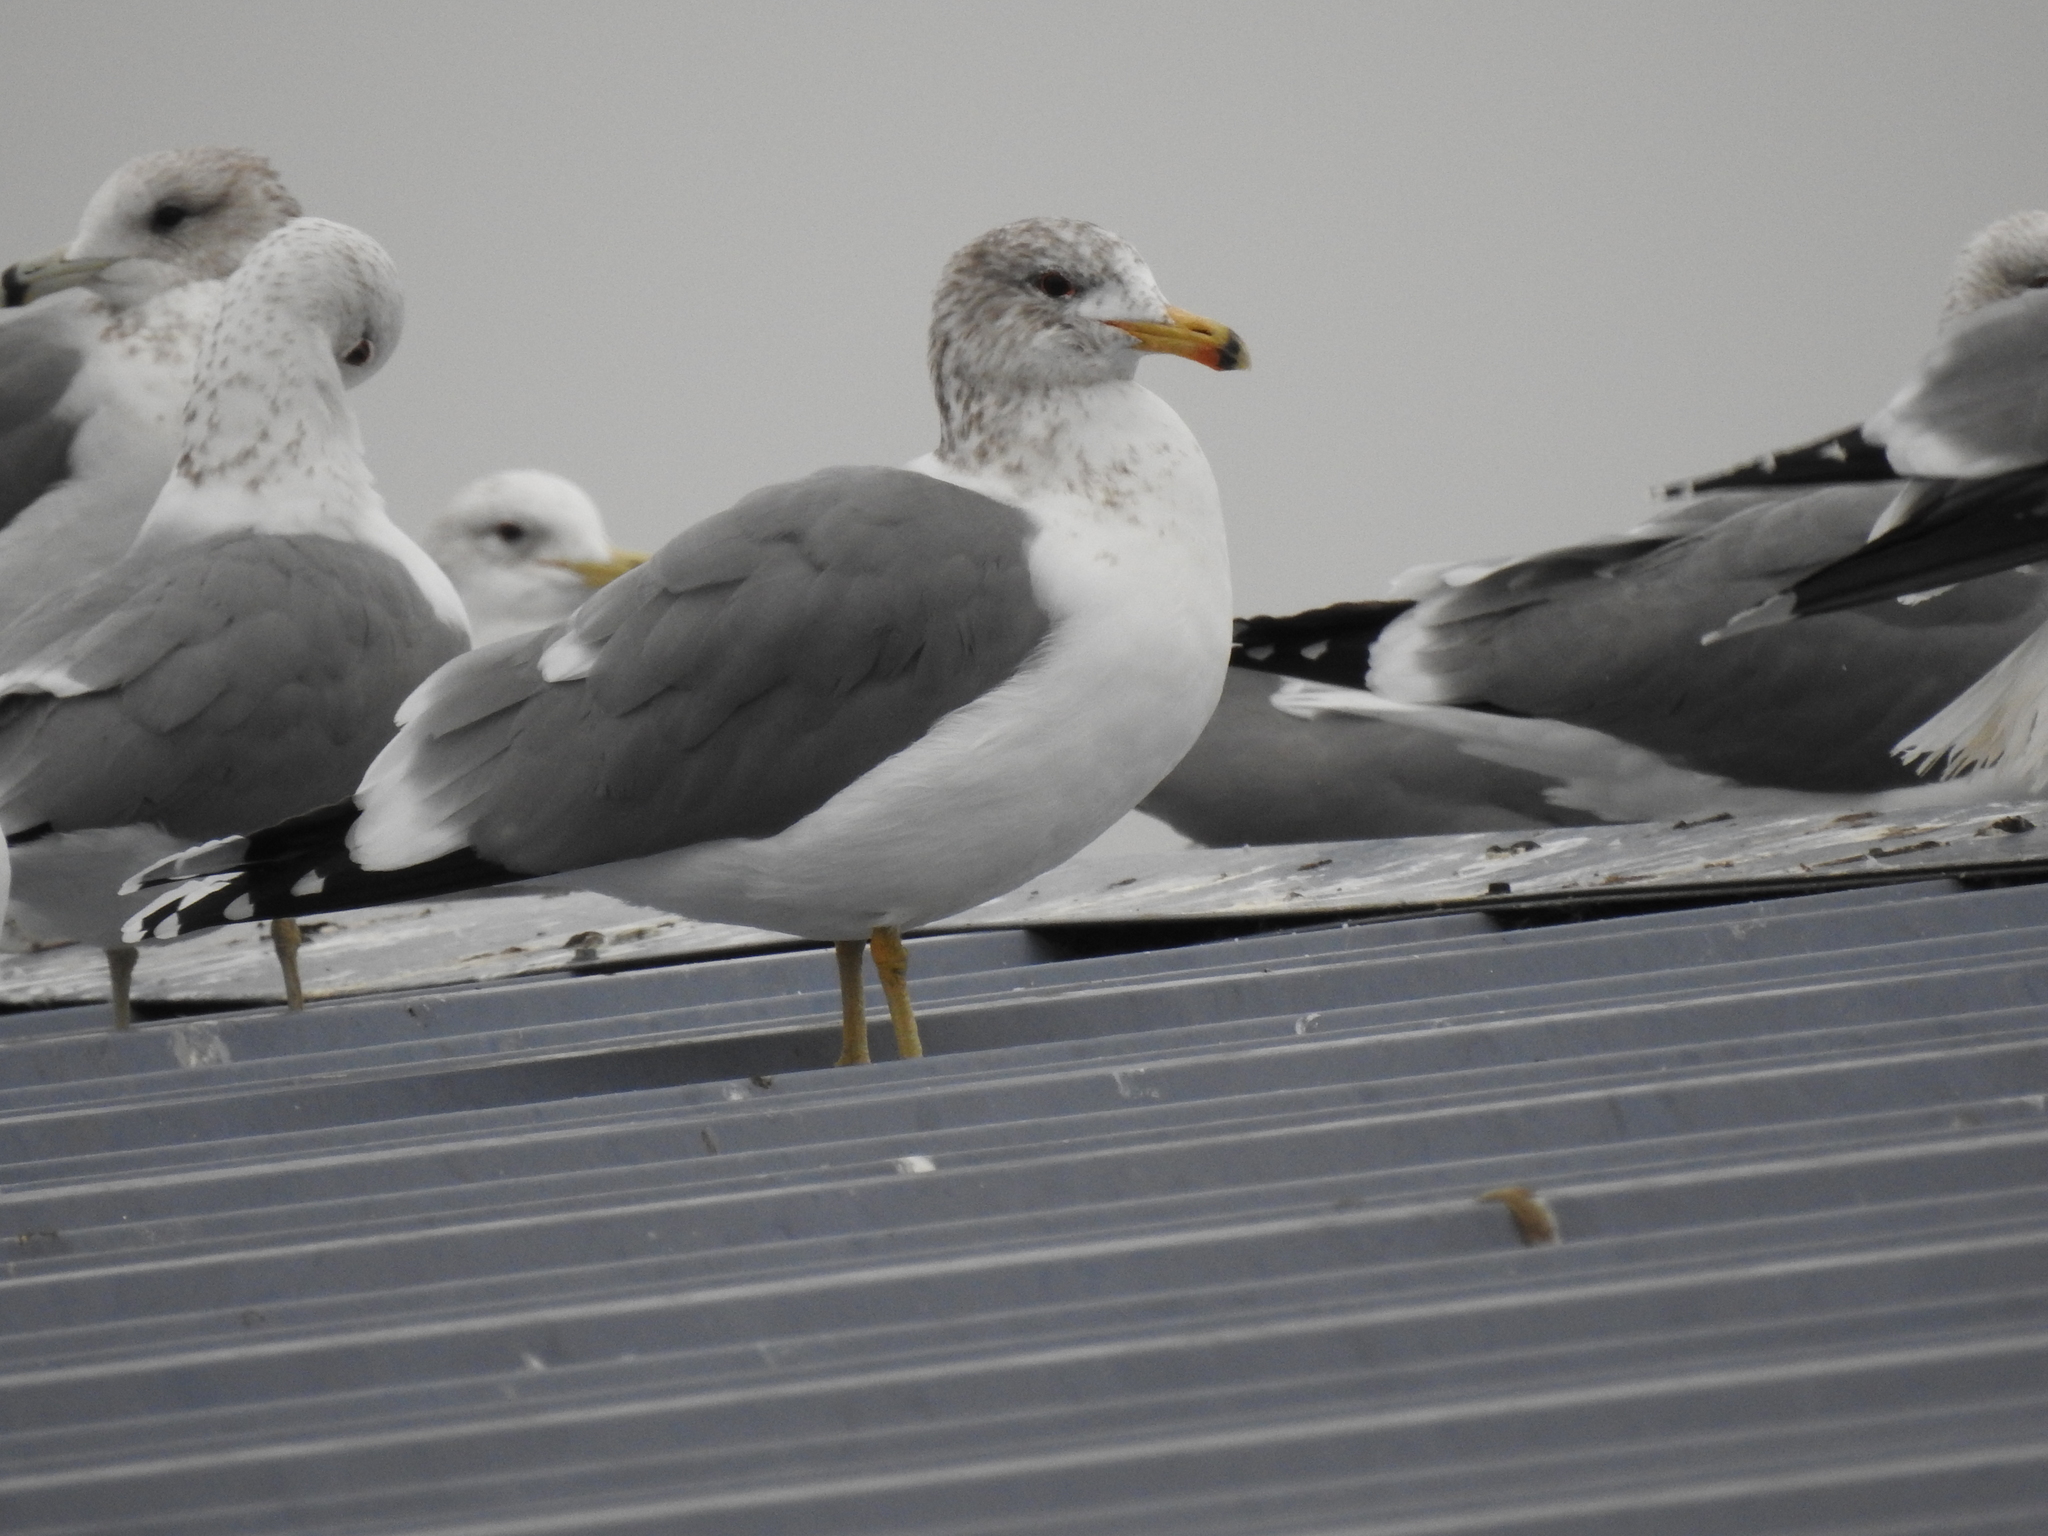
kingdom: Animalia
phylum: Chordata
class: Aves
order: Charadriiformes
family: Laridae
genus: Larus
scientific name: Larus californicus
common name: California gull
